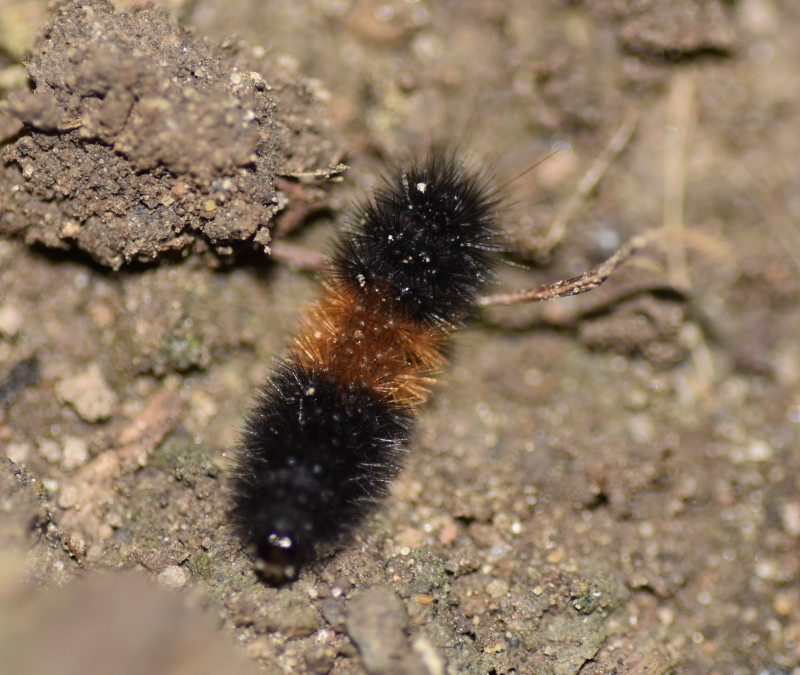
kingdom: Animalia
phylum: Arthropoda
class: Insecta
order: Lepidoptera
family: Erebidae
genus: Pyrrharctia
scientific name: Pyrrharctia isabella
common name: Isabella tiger moth
